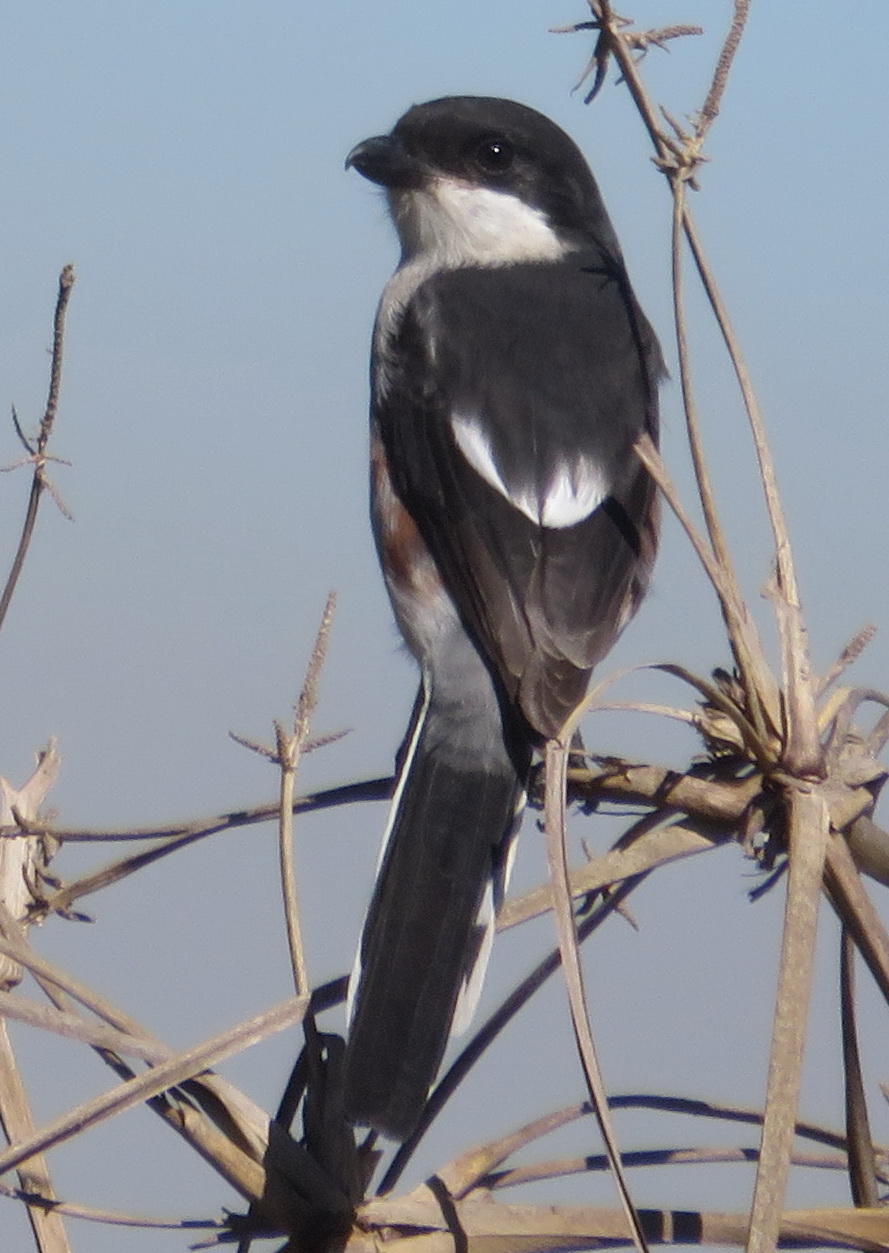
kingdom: Animalia
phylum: Chordata
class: Aves
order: Passeriformes
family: Laniidae
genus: Lanius
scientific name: Lanius collaris
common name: Southern fiscal
